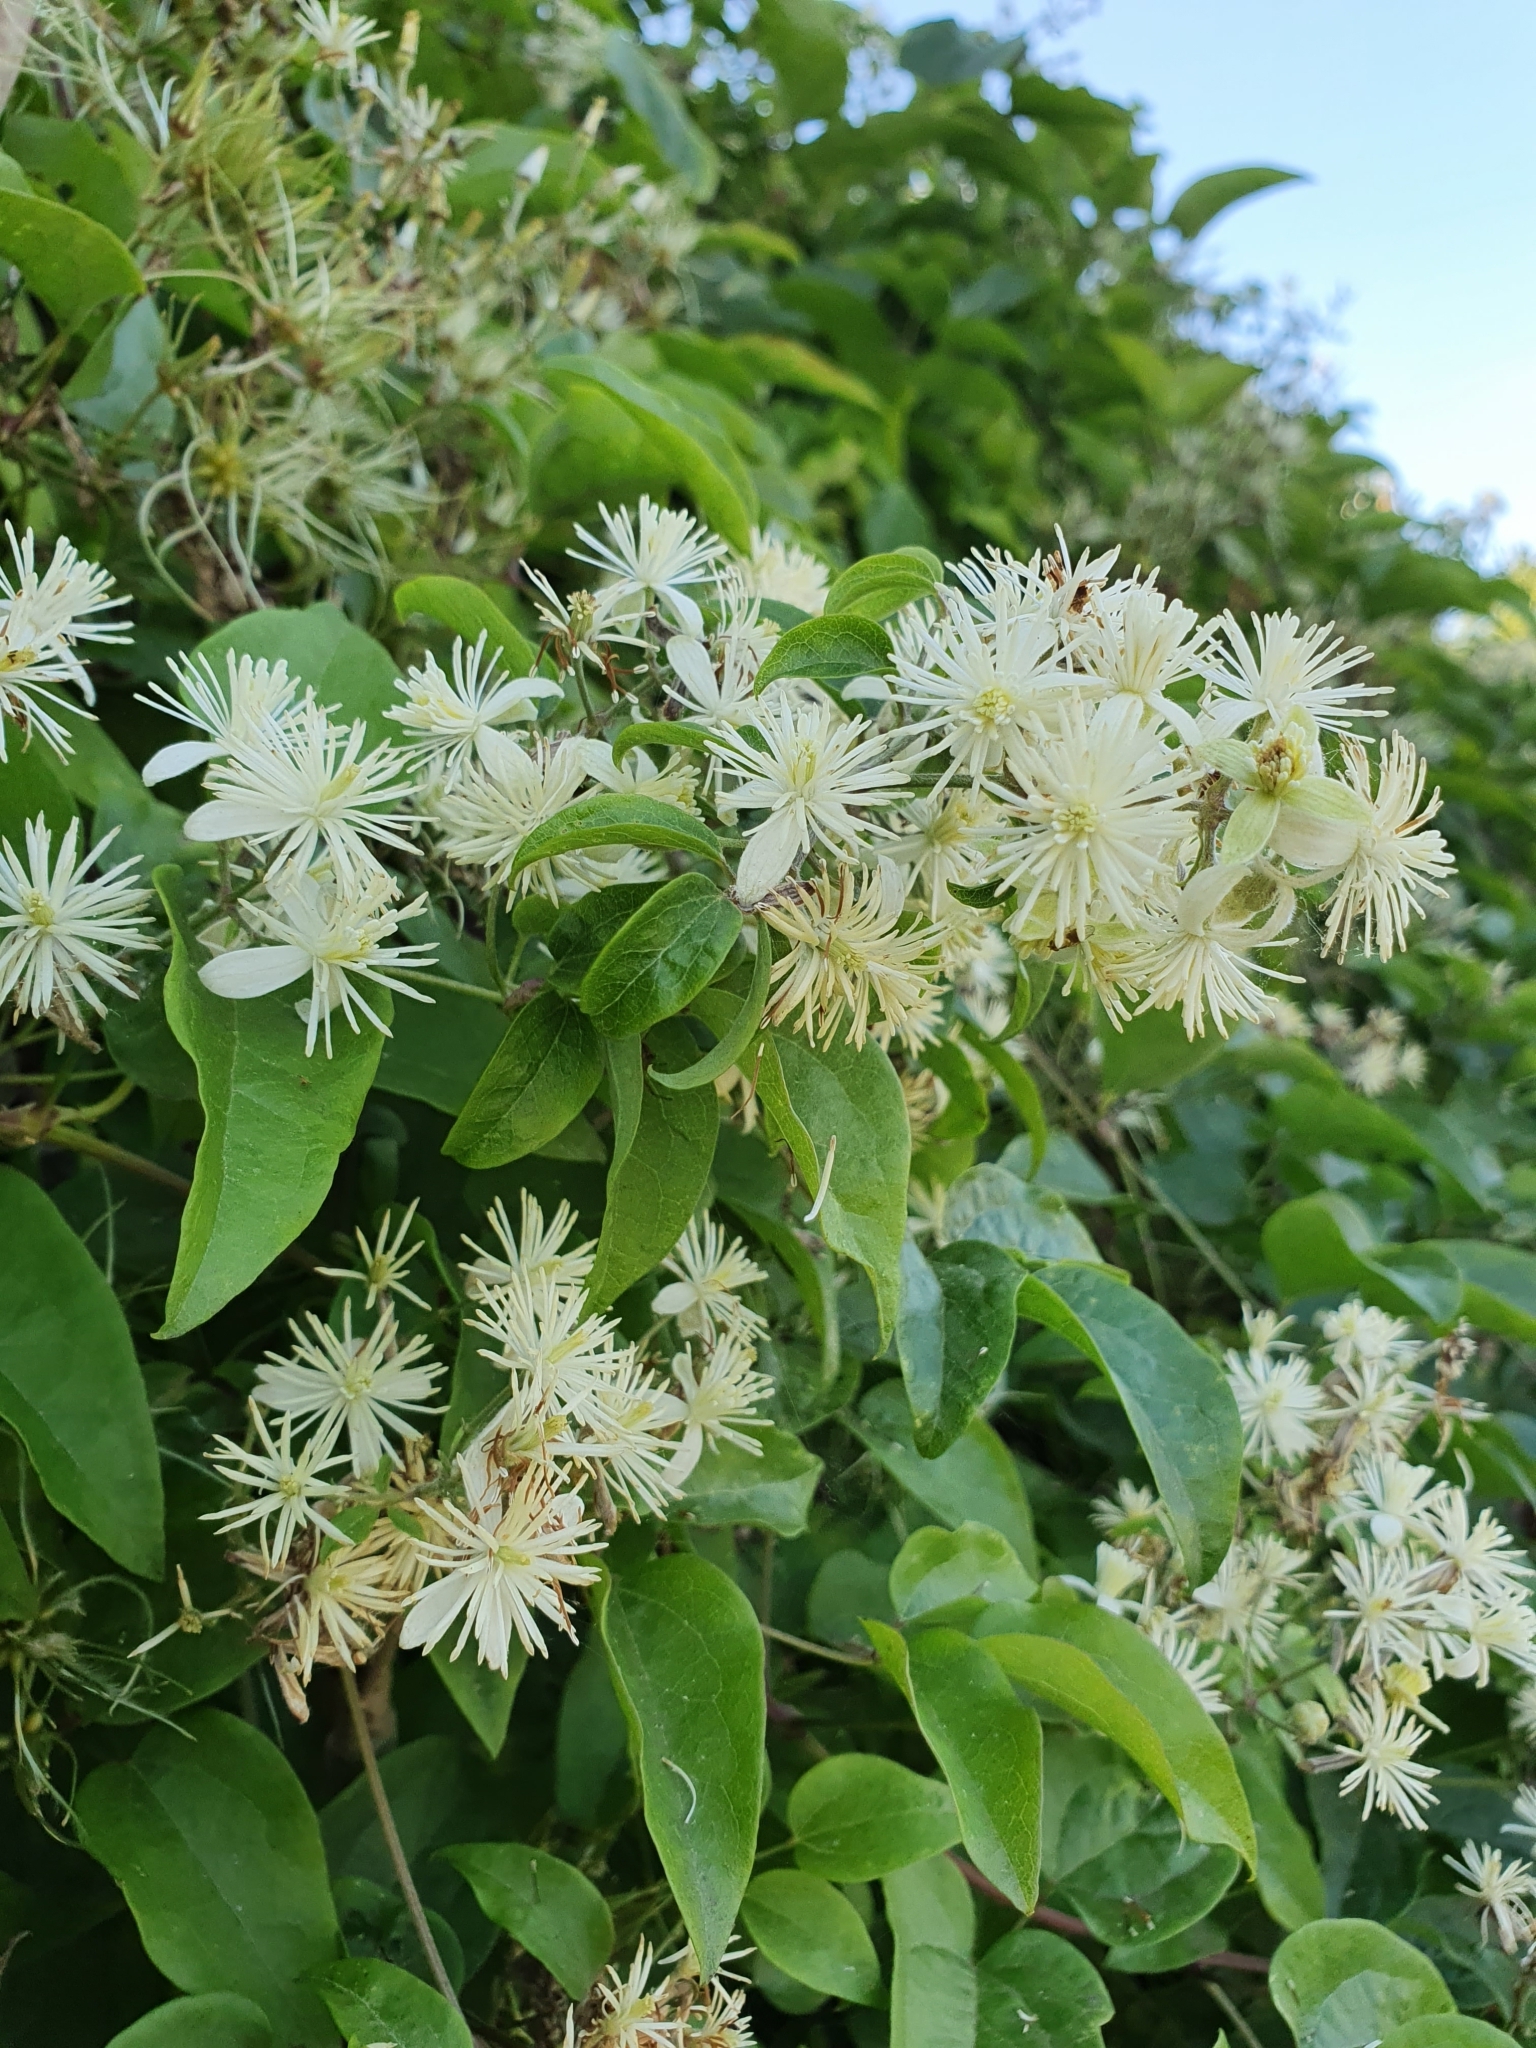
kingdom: Plantae
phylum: Tracheophyta
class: Magnoliopsida
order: Ranunculales
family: Ranunculaceae
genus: Clematis
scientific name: Clematis vitalba
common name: Evergreen clematis
